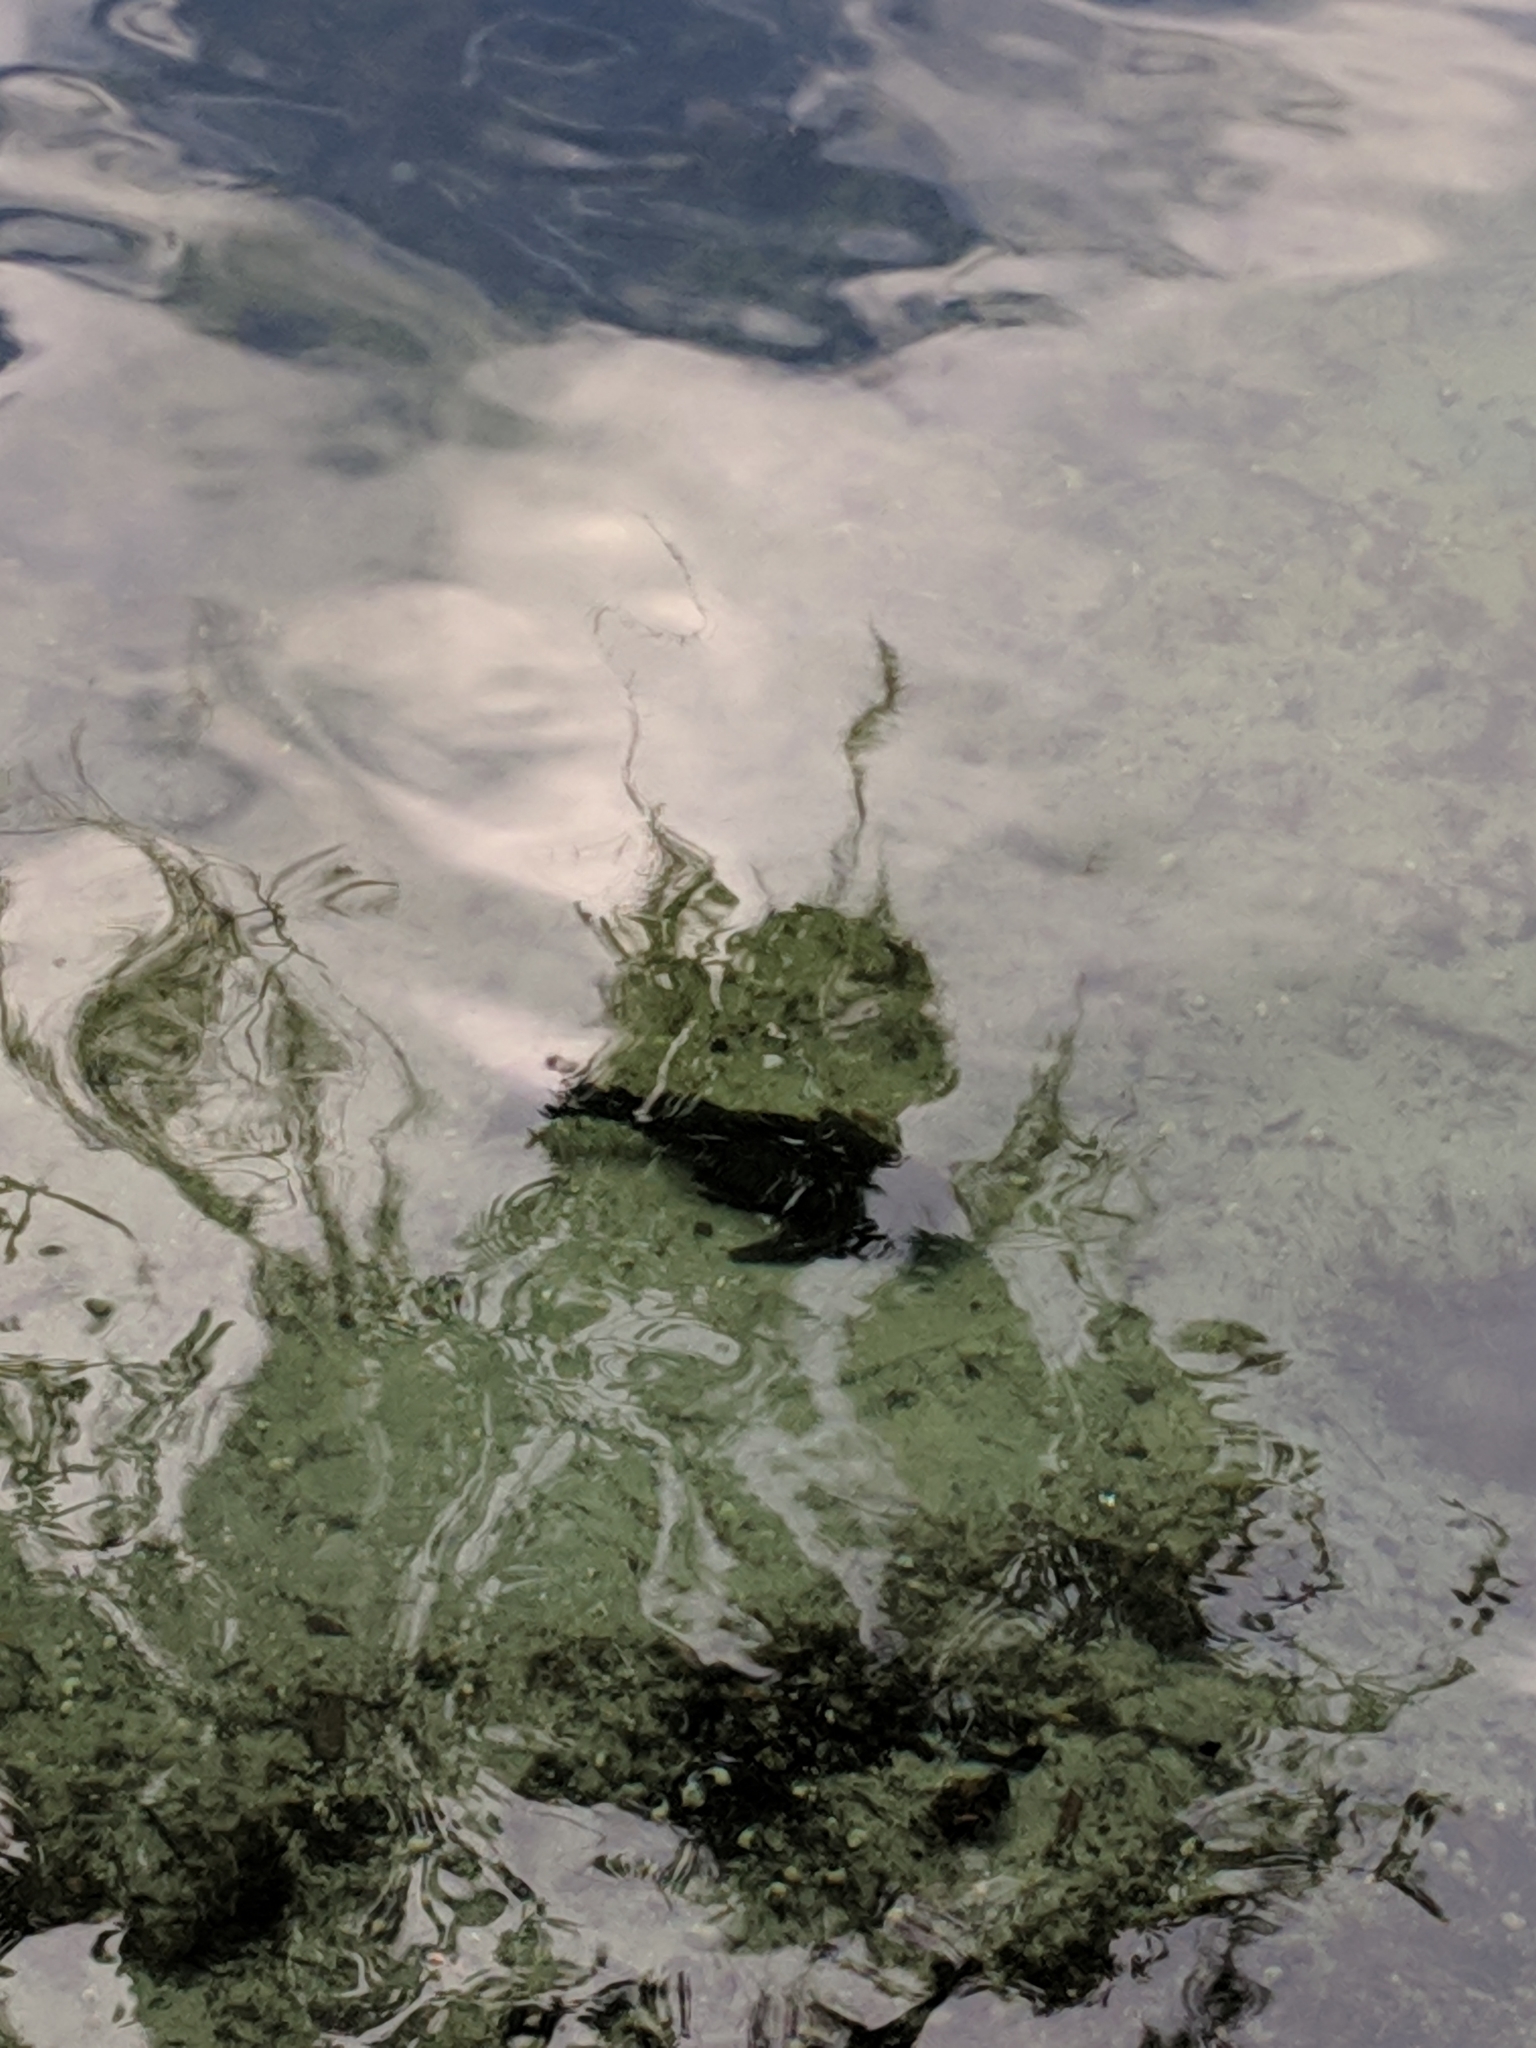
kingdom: Animalia
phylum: Chordata
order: Siluriformes
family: Loricariidae
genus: Pterygoplichthys
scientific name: Pterygoplichthys
